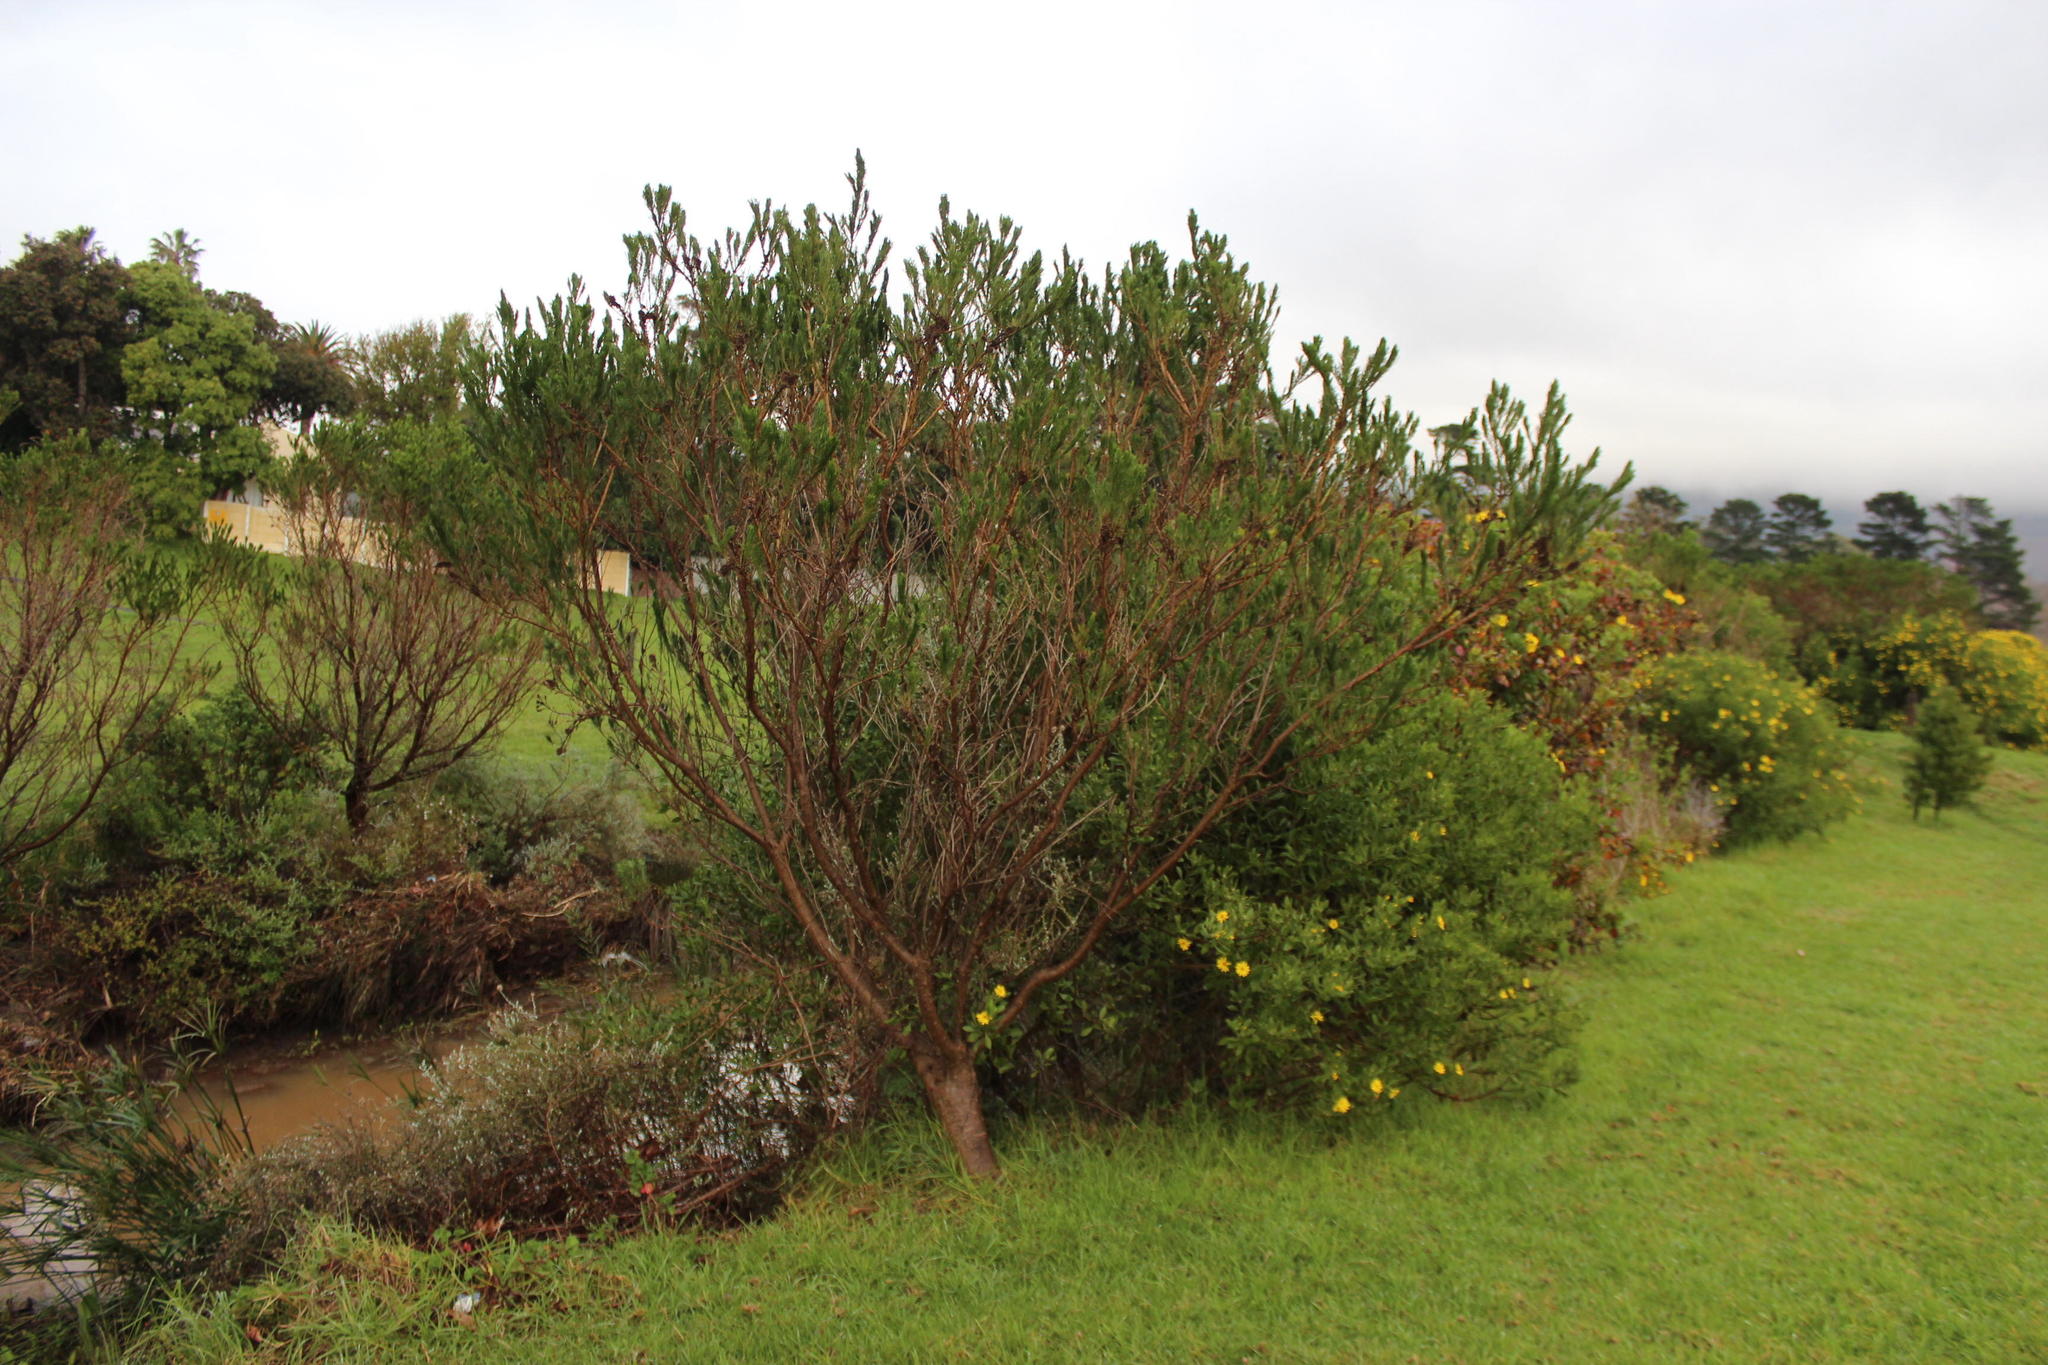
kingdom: Plantae
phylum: Tracheophyta
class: Magnoliopsida
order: Fabales
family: Fabaceae
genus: Psoralea
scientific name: Psoralea pinnata
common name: African scurfpea
